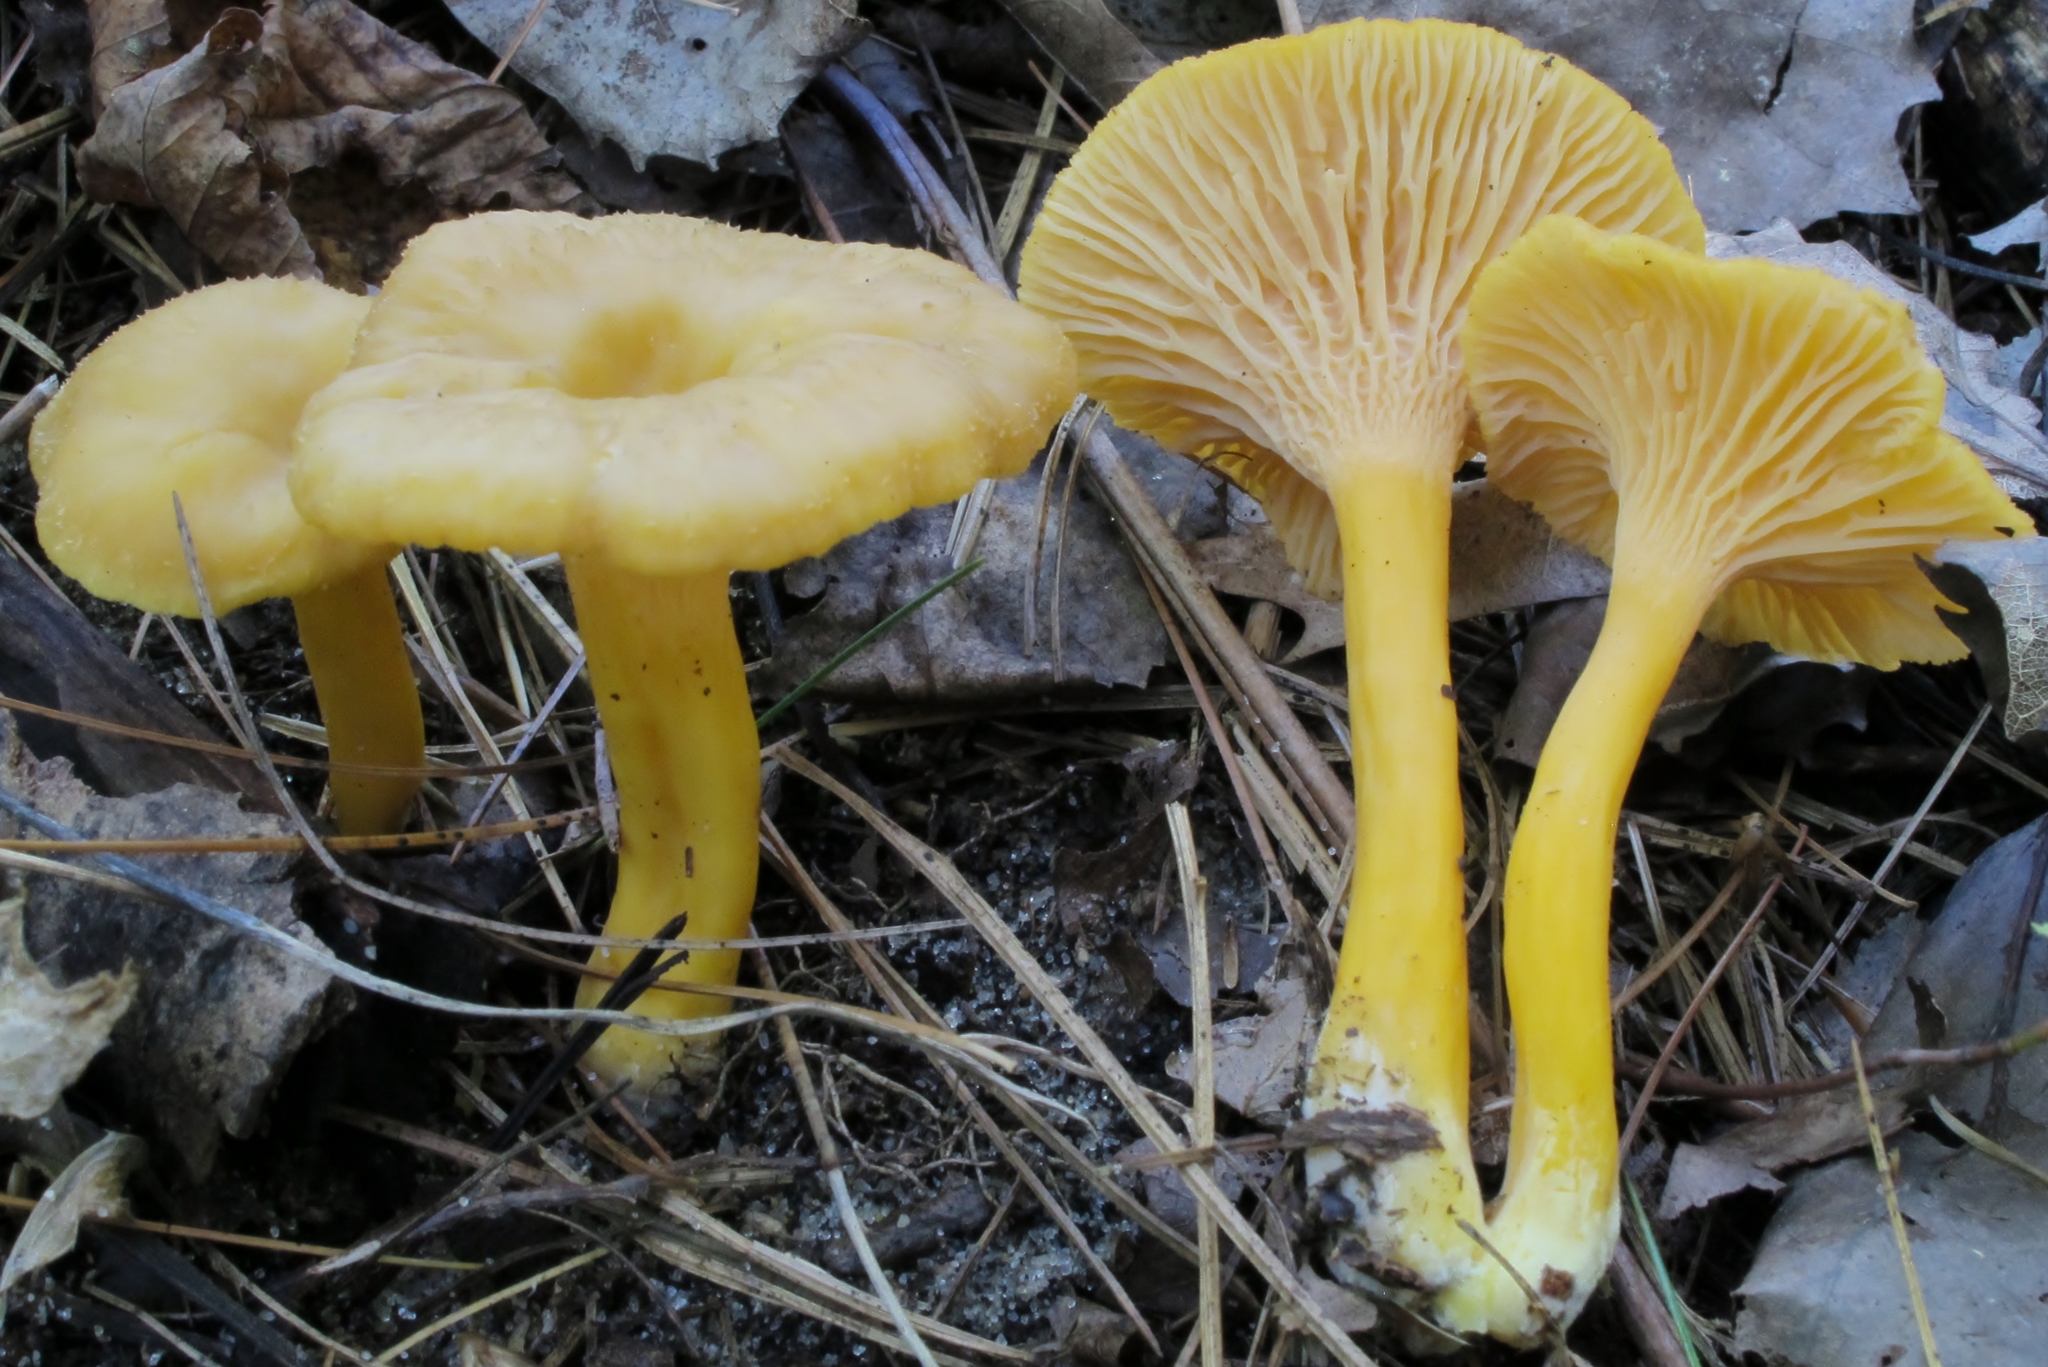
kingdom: Fungi
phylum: Basidiomycota
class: Agaricomycetes
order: Cantharellales
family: Hydnaceae
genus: Craterellus
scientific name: Craterellus ignicolor
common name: Flame chanterelle
